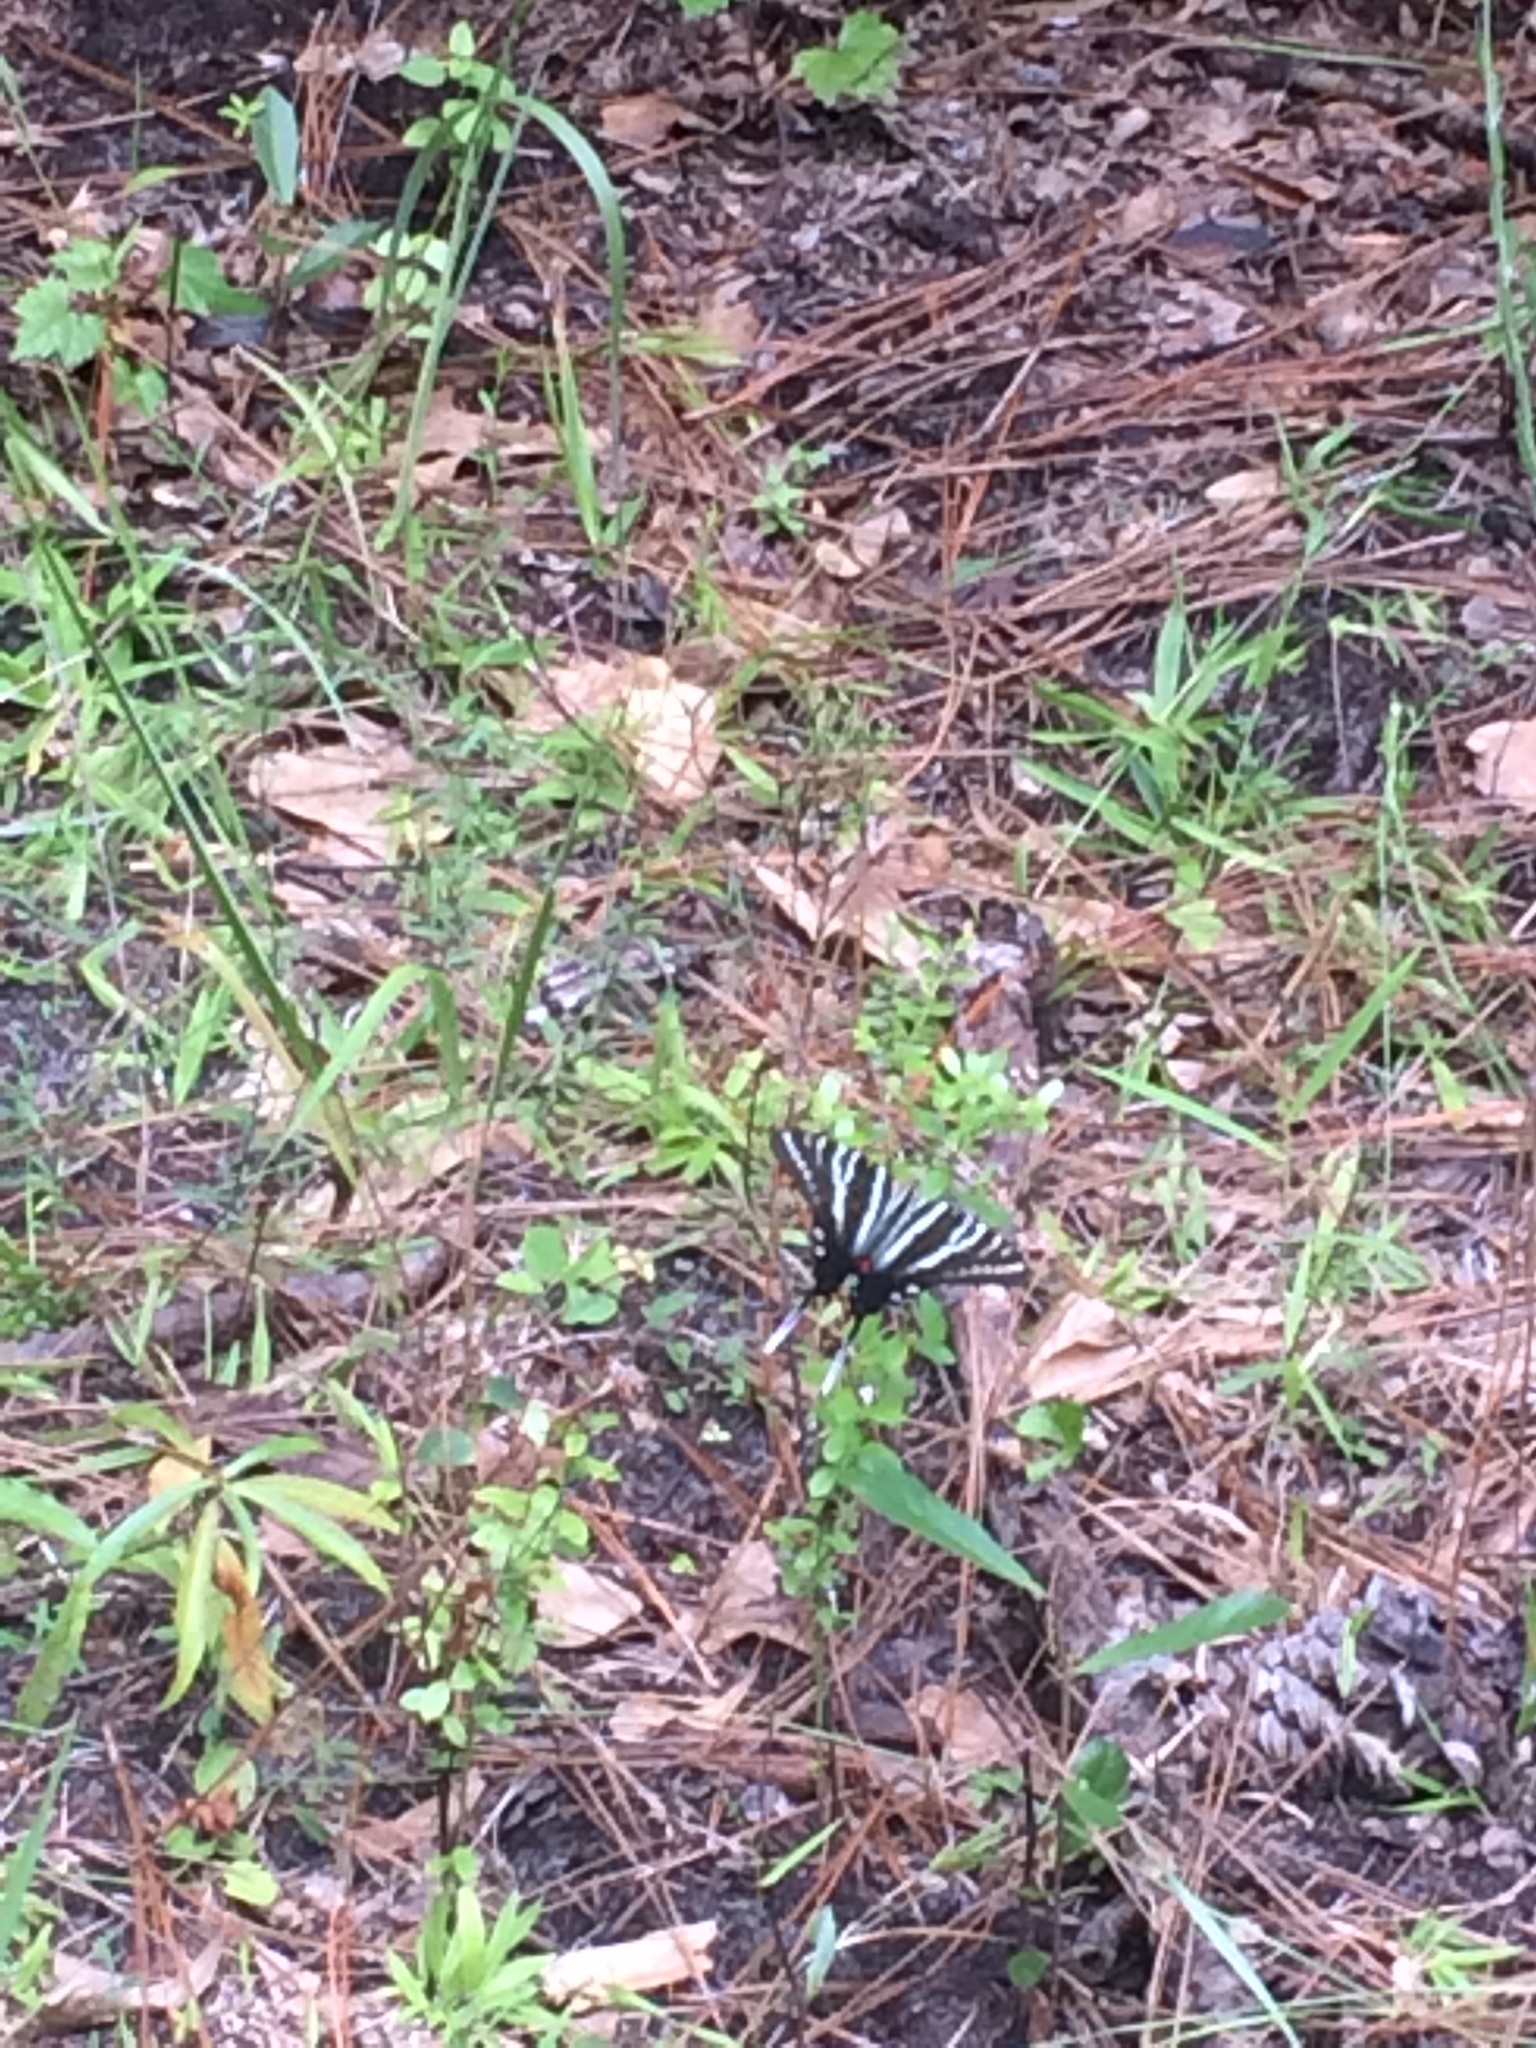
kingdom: Animalia
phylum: Arthropoda
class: Insecta
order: Lepidoptera
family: Papilionidae
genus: Protographium
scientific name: Protographium marcellus
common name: Zebra swallowtail
